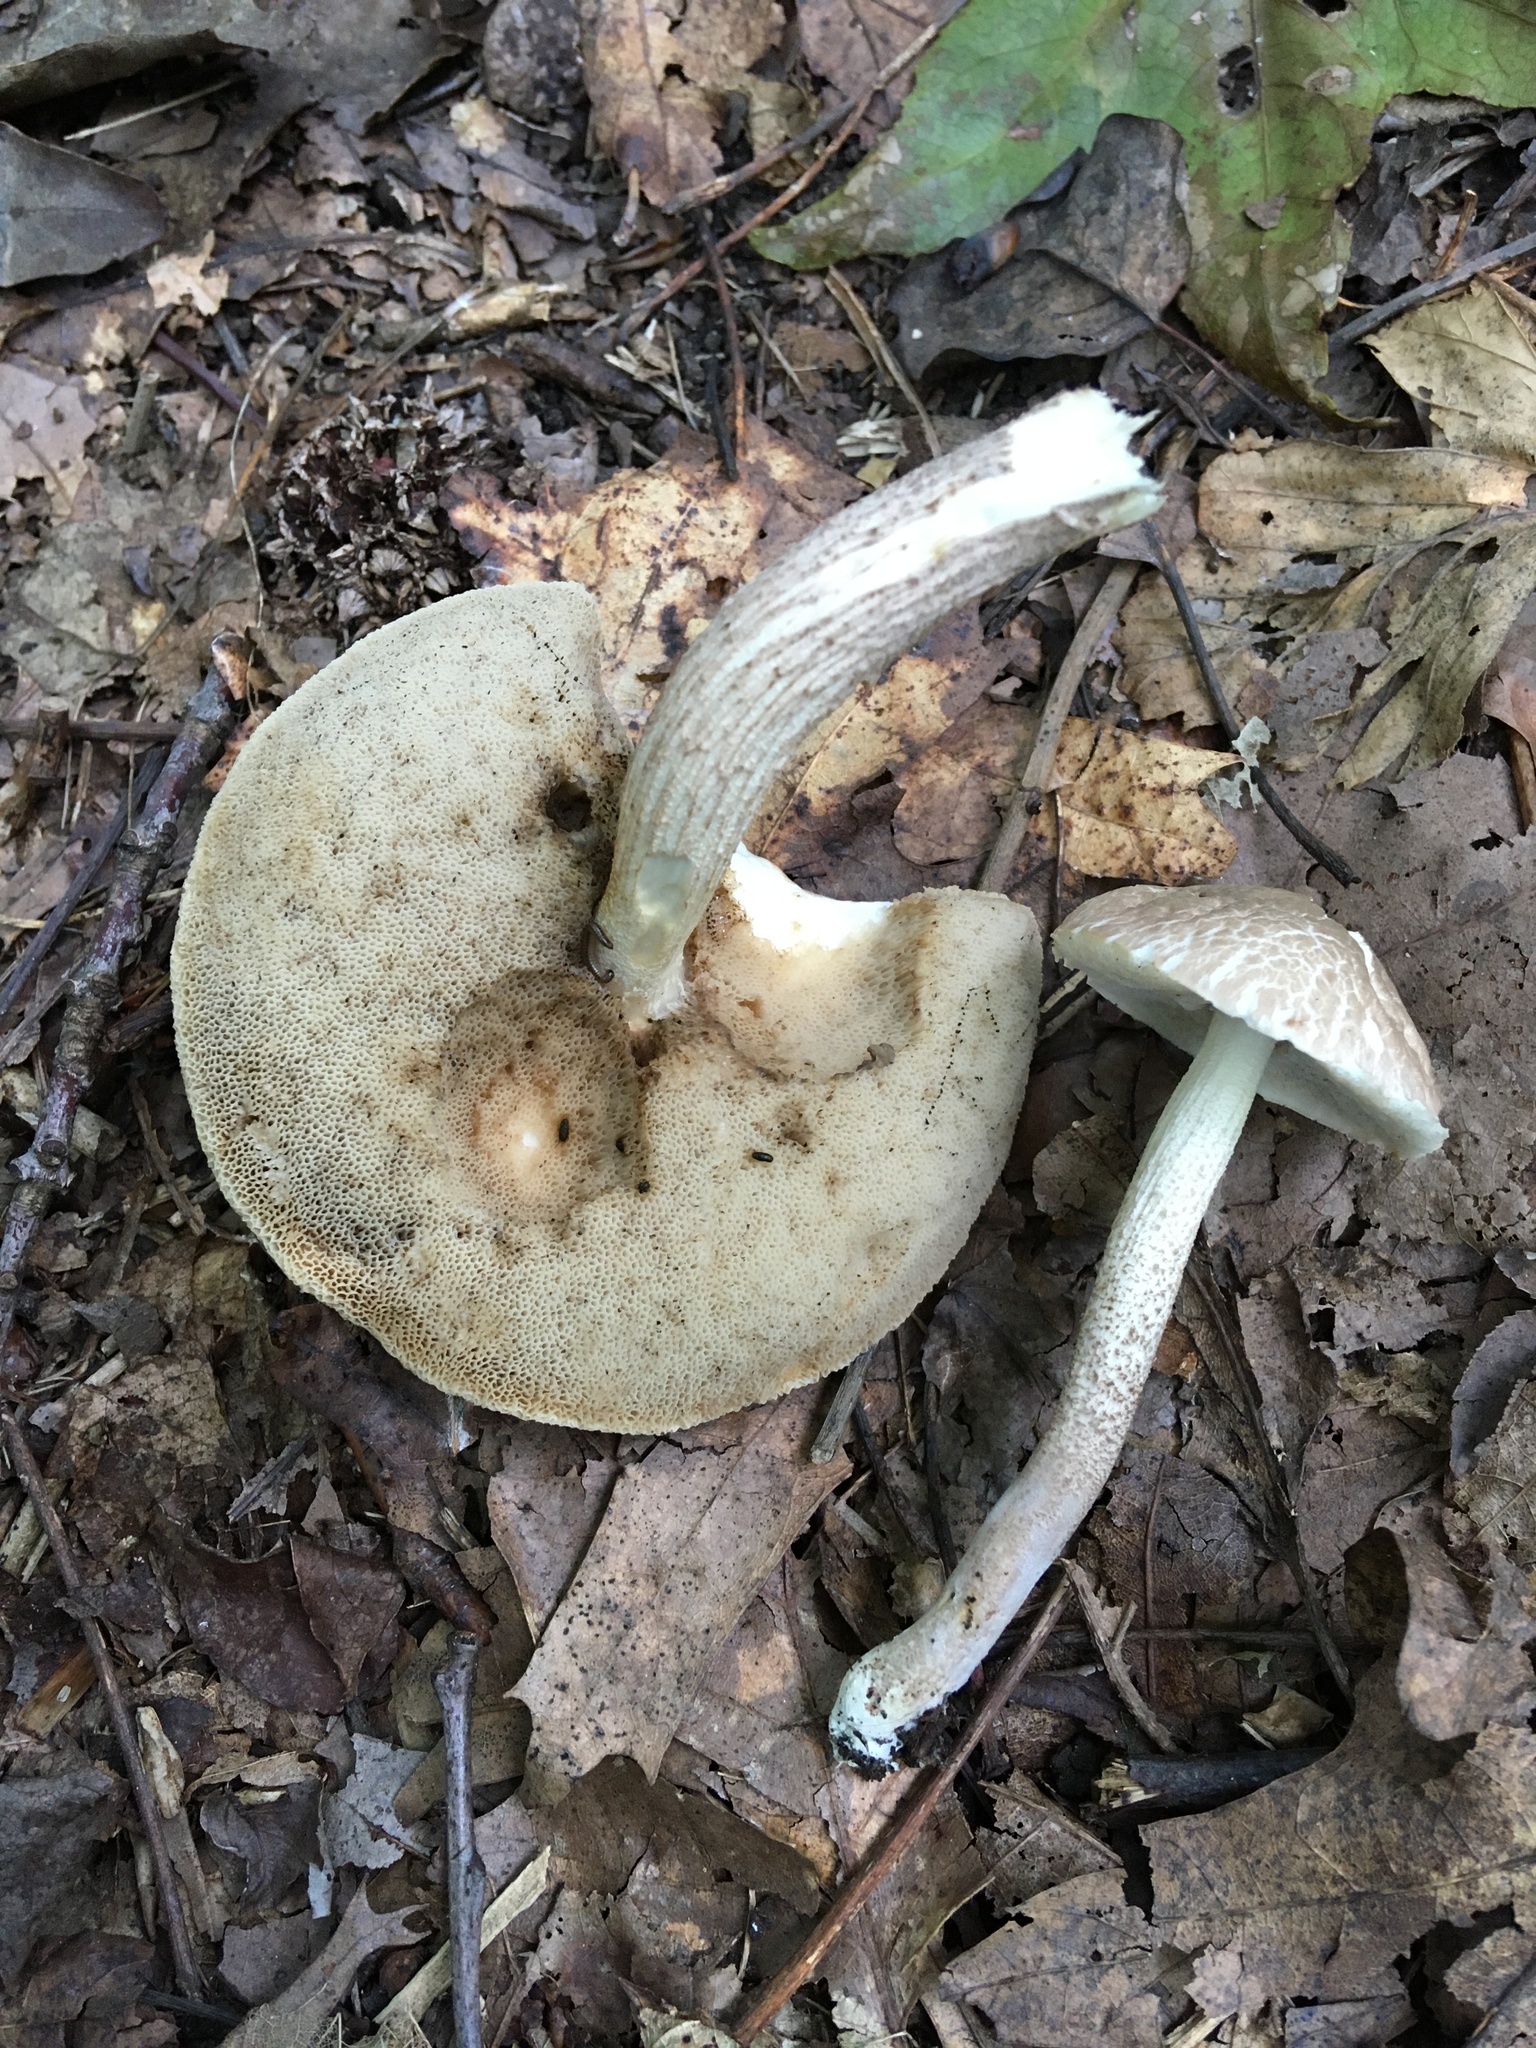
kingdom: Fungi
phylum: Basidiomycota
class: Agaricomycetes
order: Boletales
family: Boletaceae
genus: Leccinellum
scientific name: Leccinellum albellum
